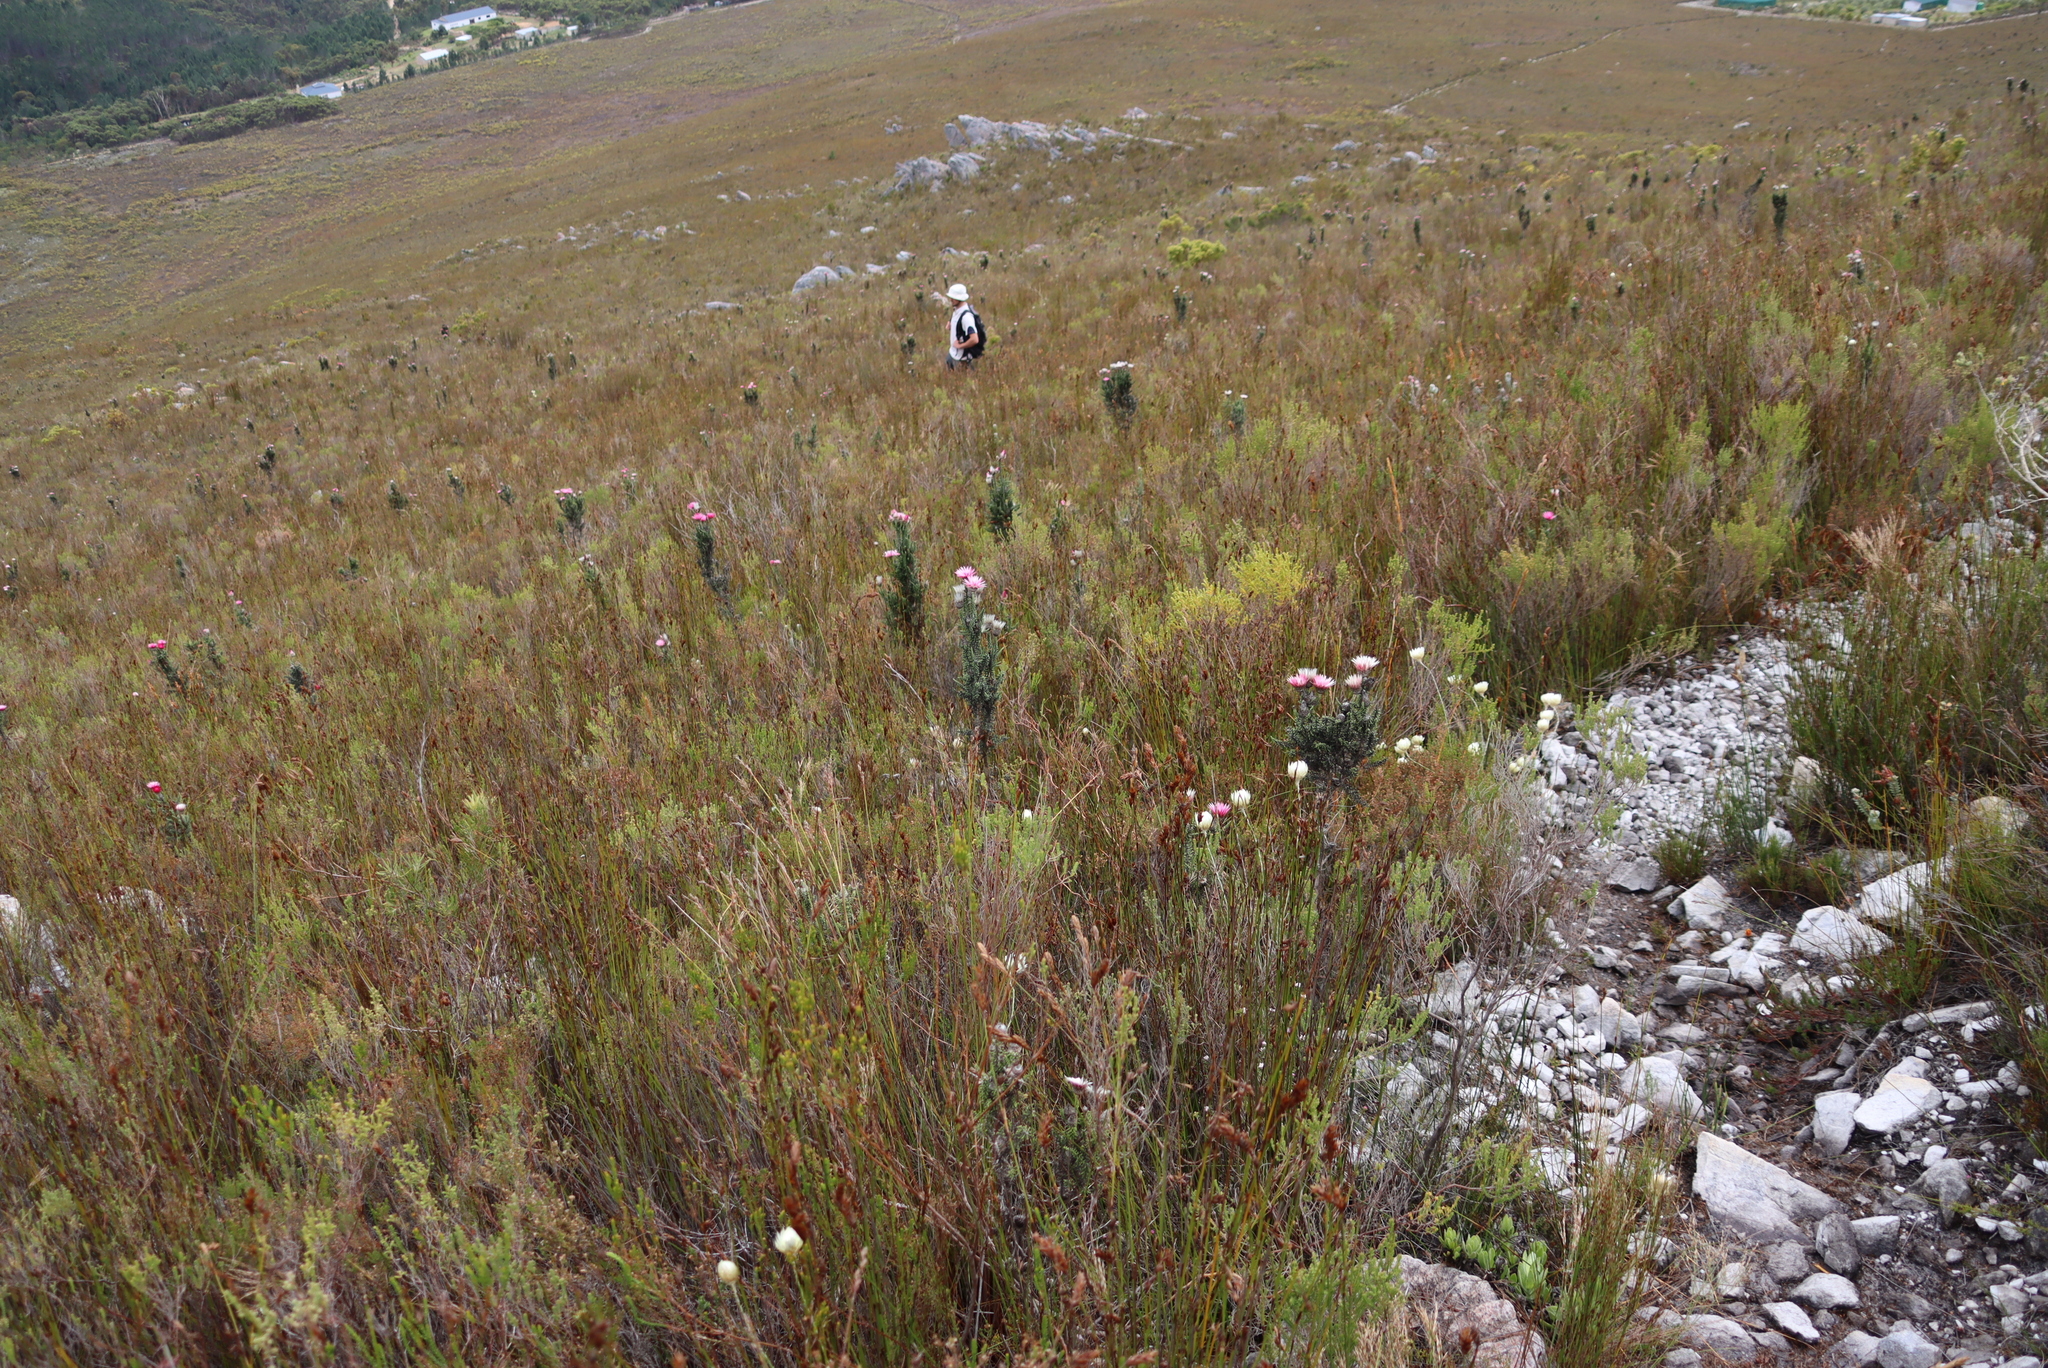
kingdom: Plantae
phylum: Tracheophyta
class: Magnoliopsida
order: Asterales
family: Asteraceae
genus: Phaenocoma
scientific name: Phaenocoma prolifera
